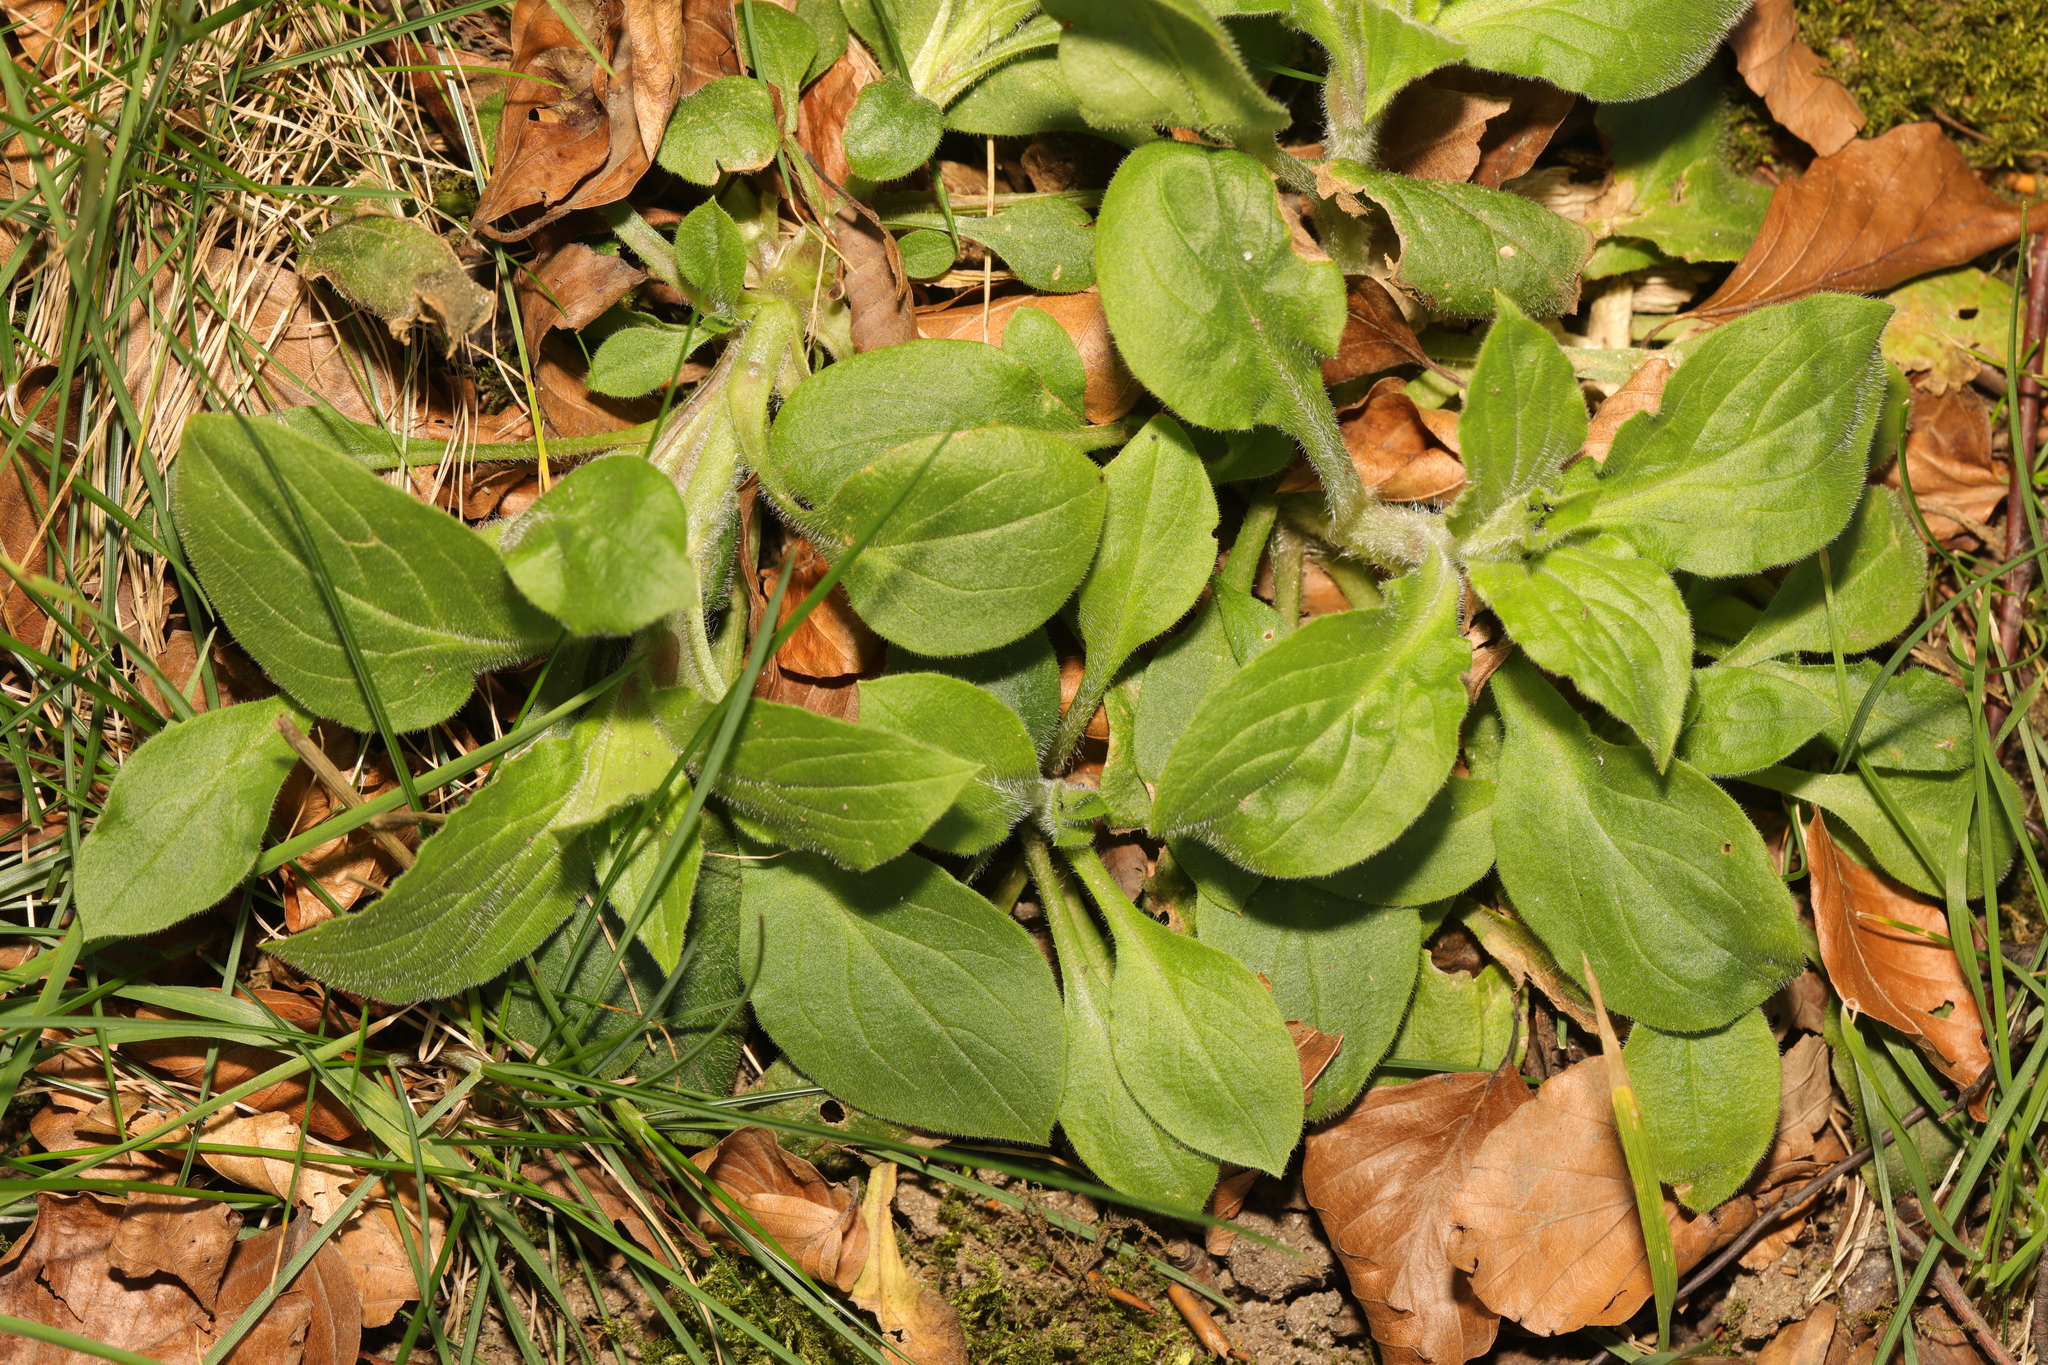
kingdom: Plantae
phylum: Tracheophyta
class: Magnoliopsida
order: Caryophyllales
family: Caryophyllaceae
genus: Silene
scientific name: Silene dioica
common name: Red campion
